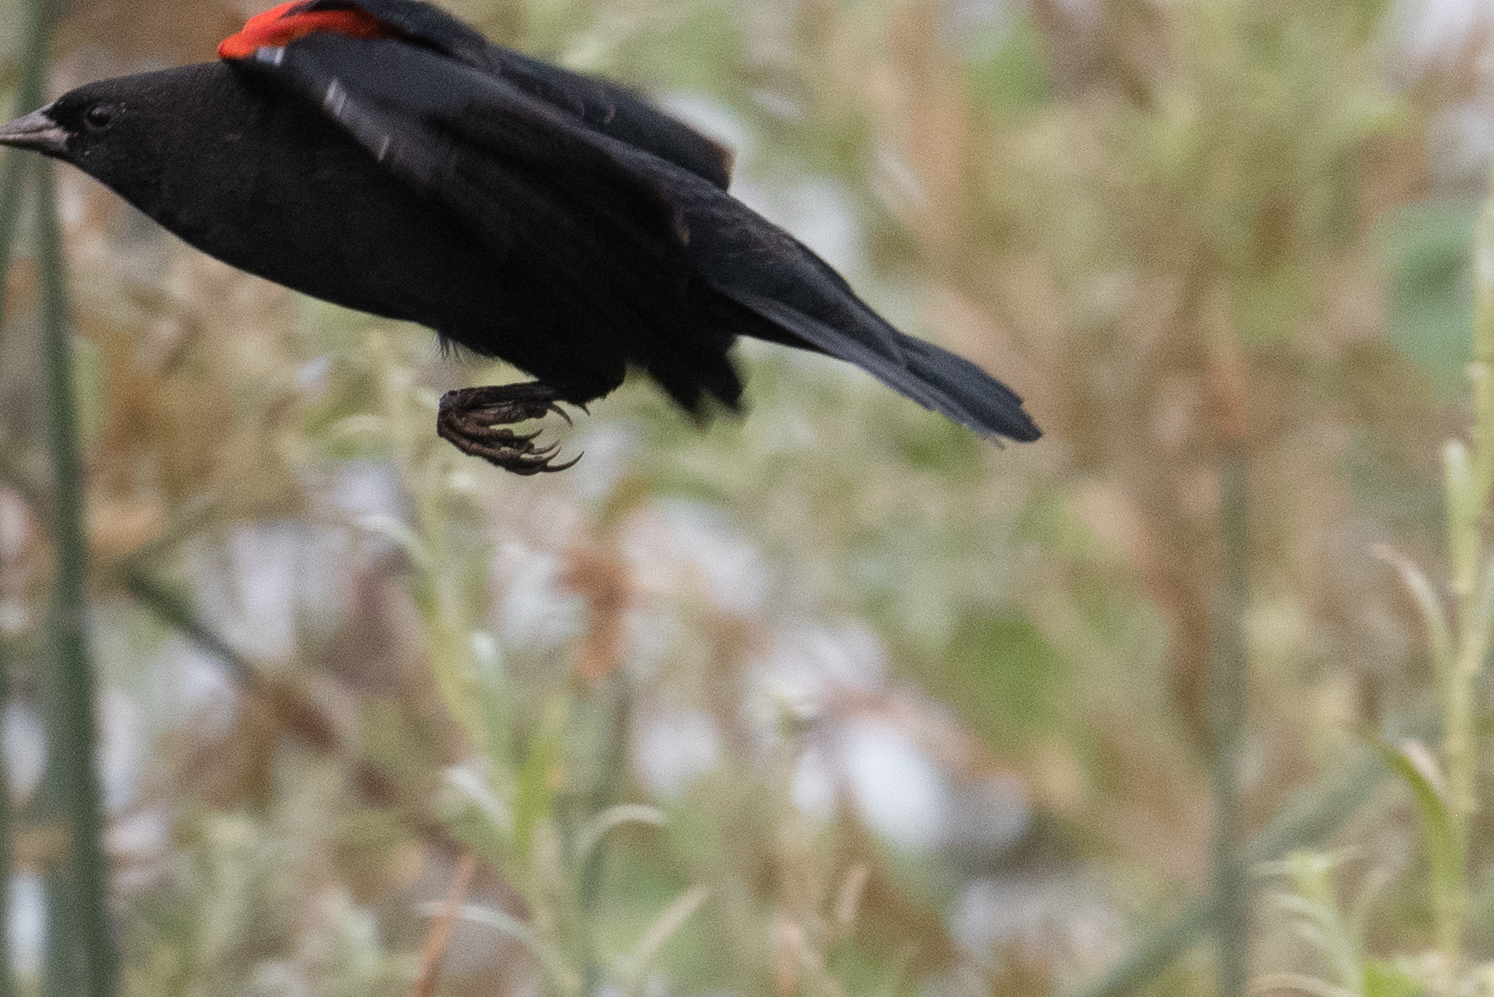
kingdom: Animalia
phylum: Chordata
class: Aves
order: Passeriformes
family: Icteridae
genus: Agelaius
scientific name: Agelaius phoeniceus
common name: Red-winged blackbird
